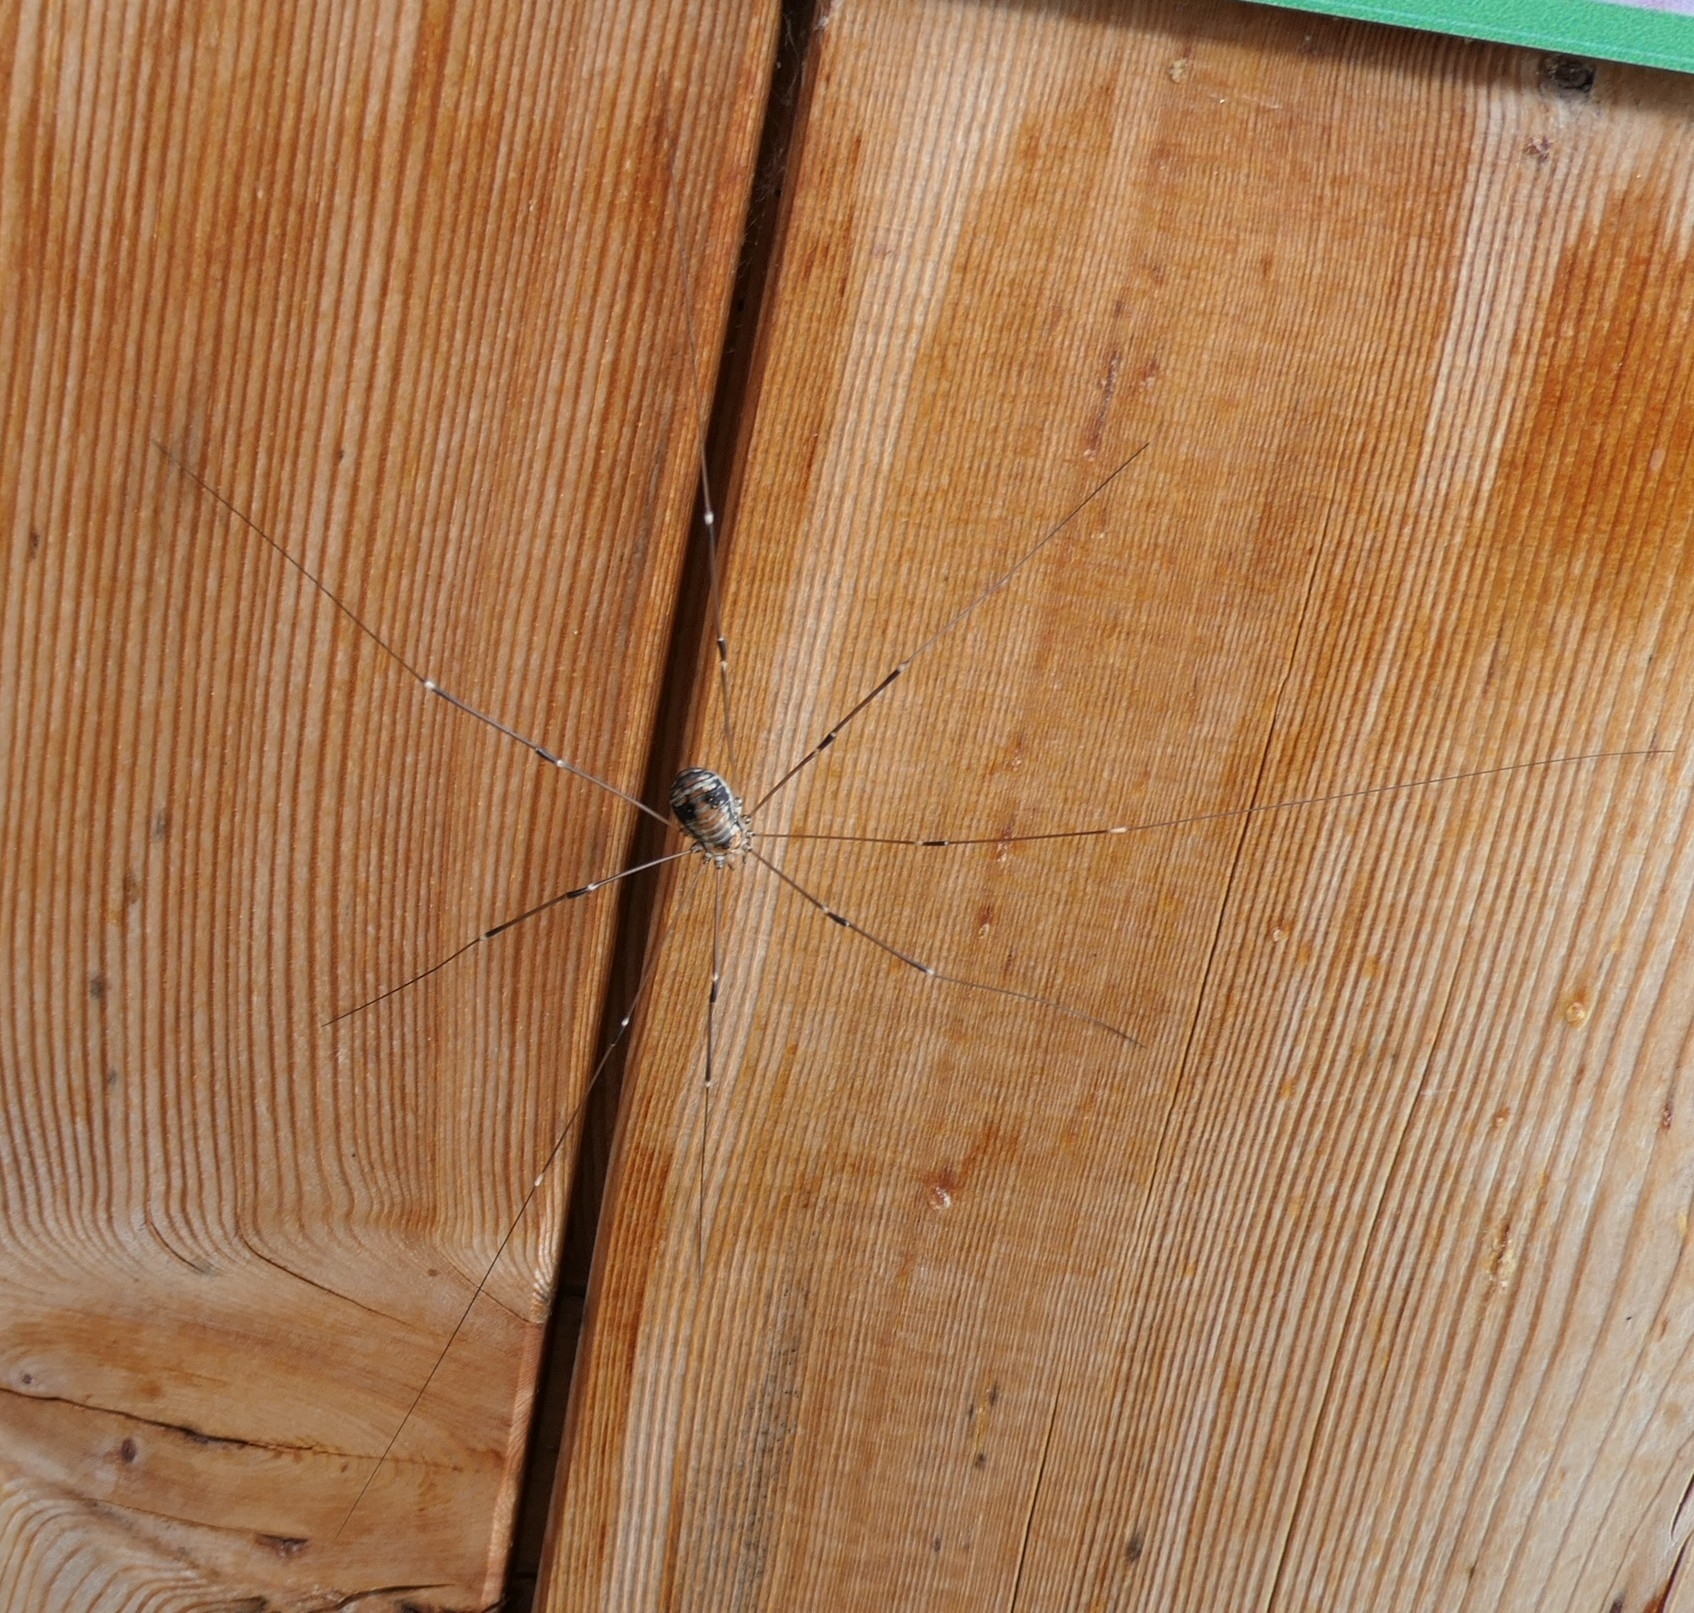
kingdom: Animalia
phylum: Arthropoda
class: Arachnida
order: Opiliones
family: Sclerosomatidae
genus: Leiobunum
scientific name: Leiobunum limbatum
